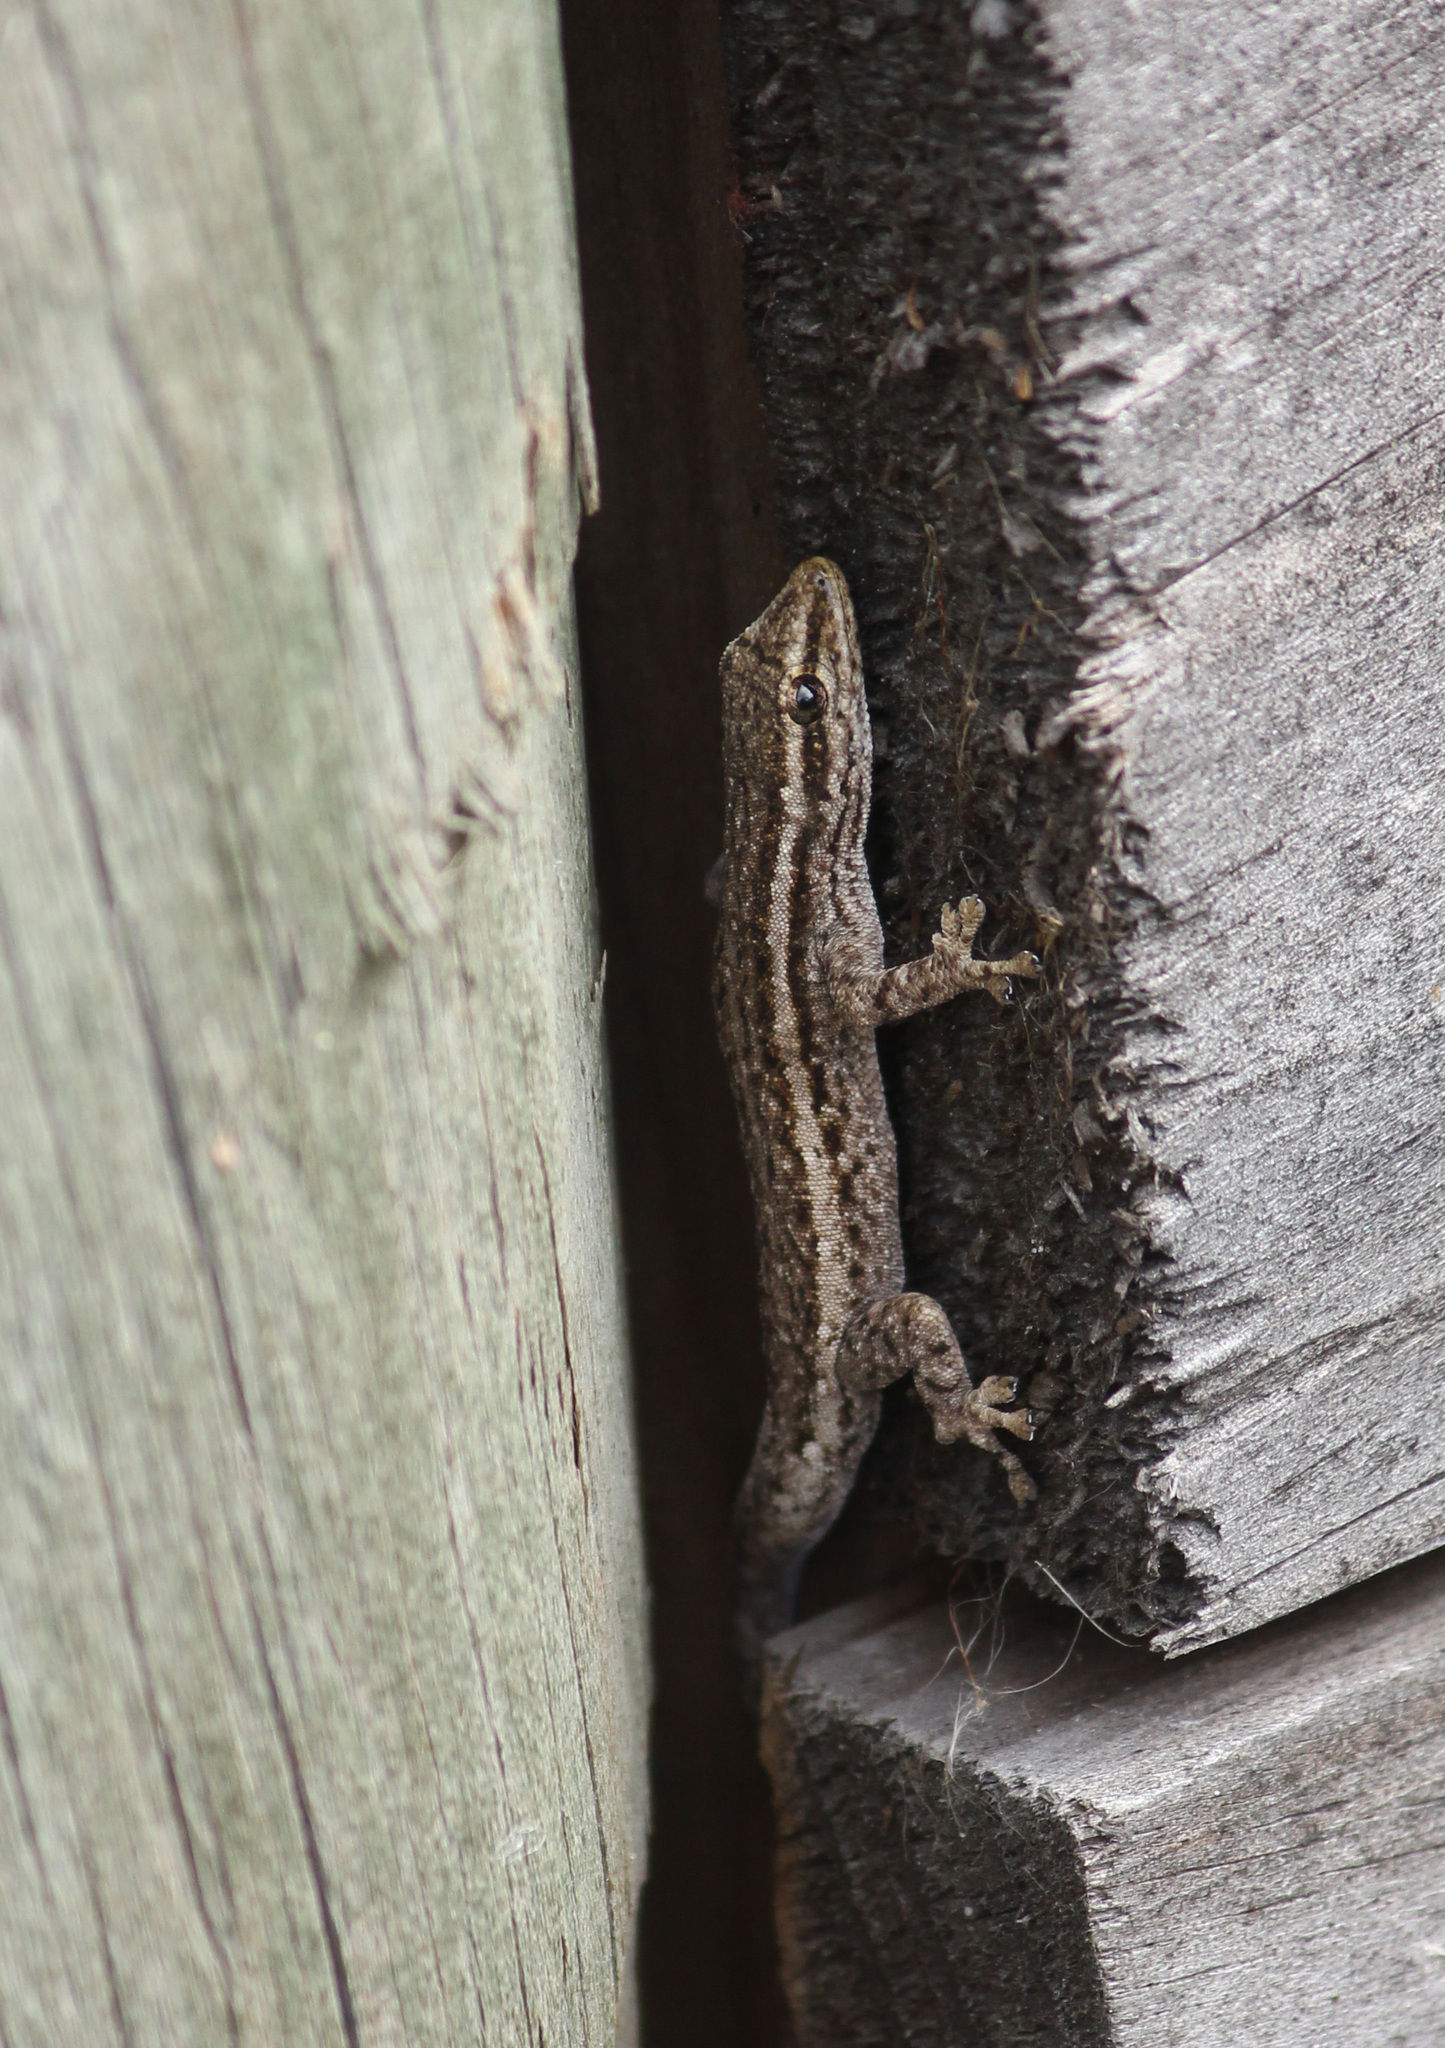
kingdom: Animalia
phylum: Chordata
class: Squamata
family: Gekkonidae
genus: Lygodactylus
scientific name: Lygodactylus capensis
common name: Cape dwarf gecko
